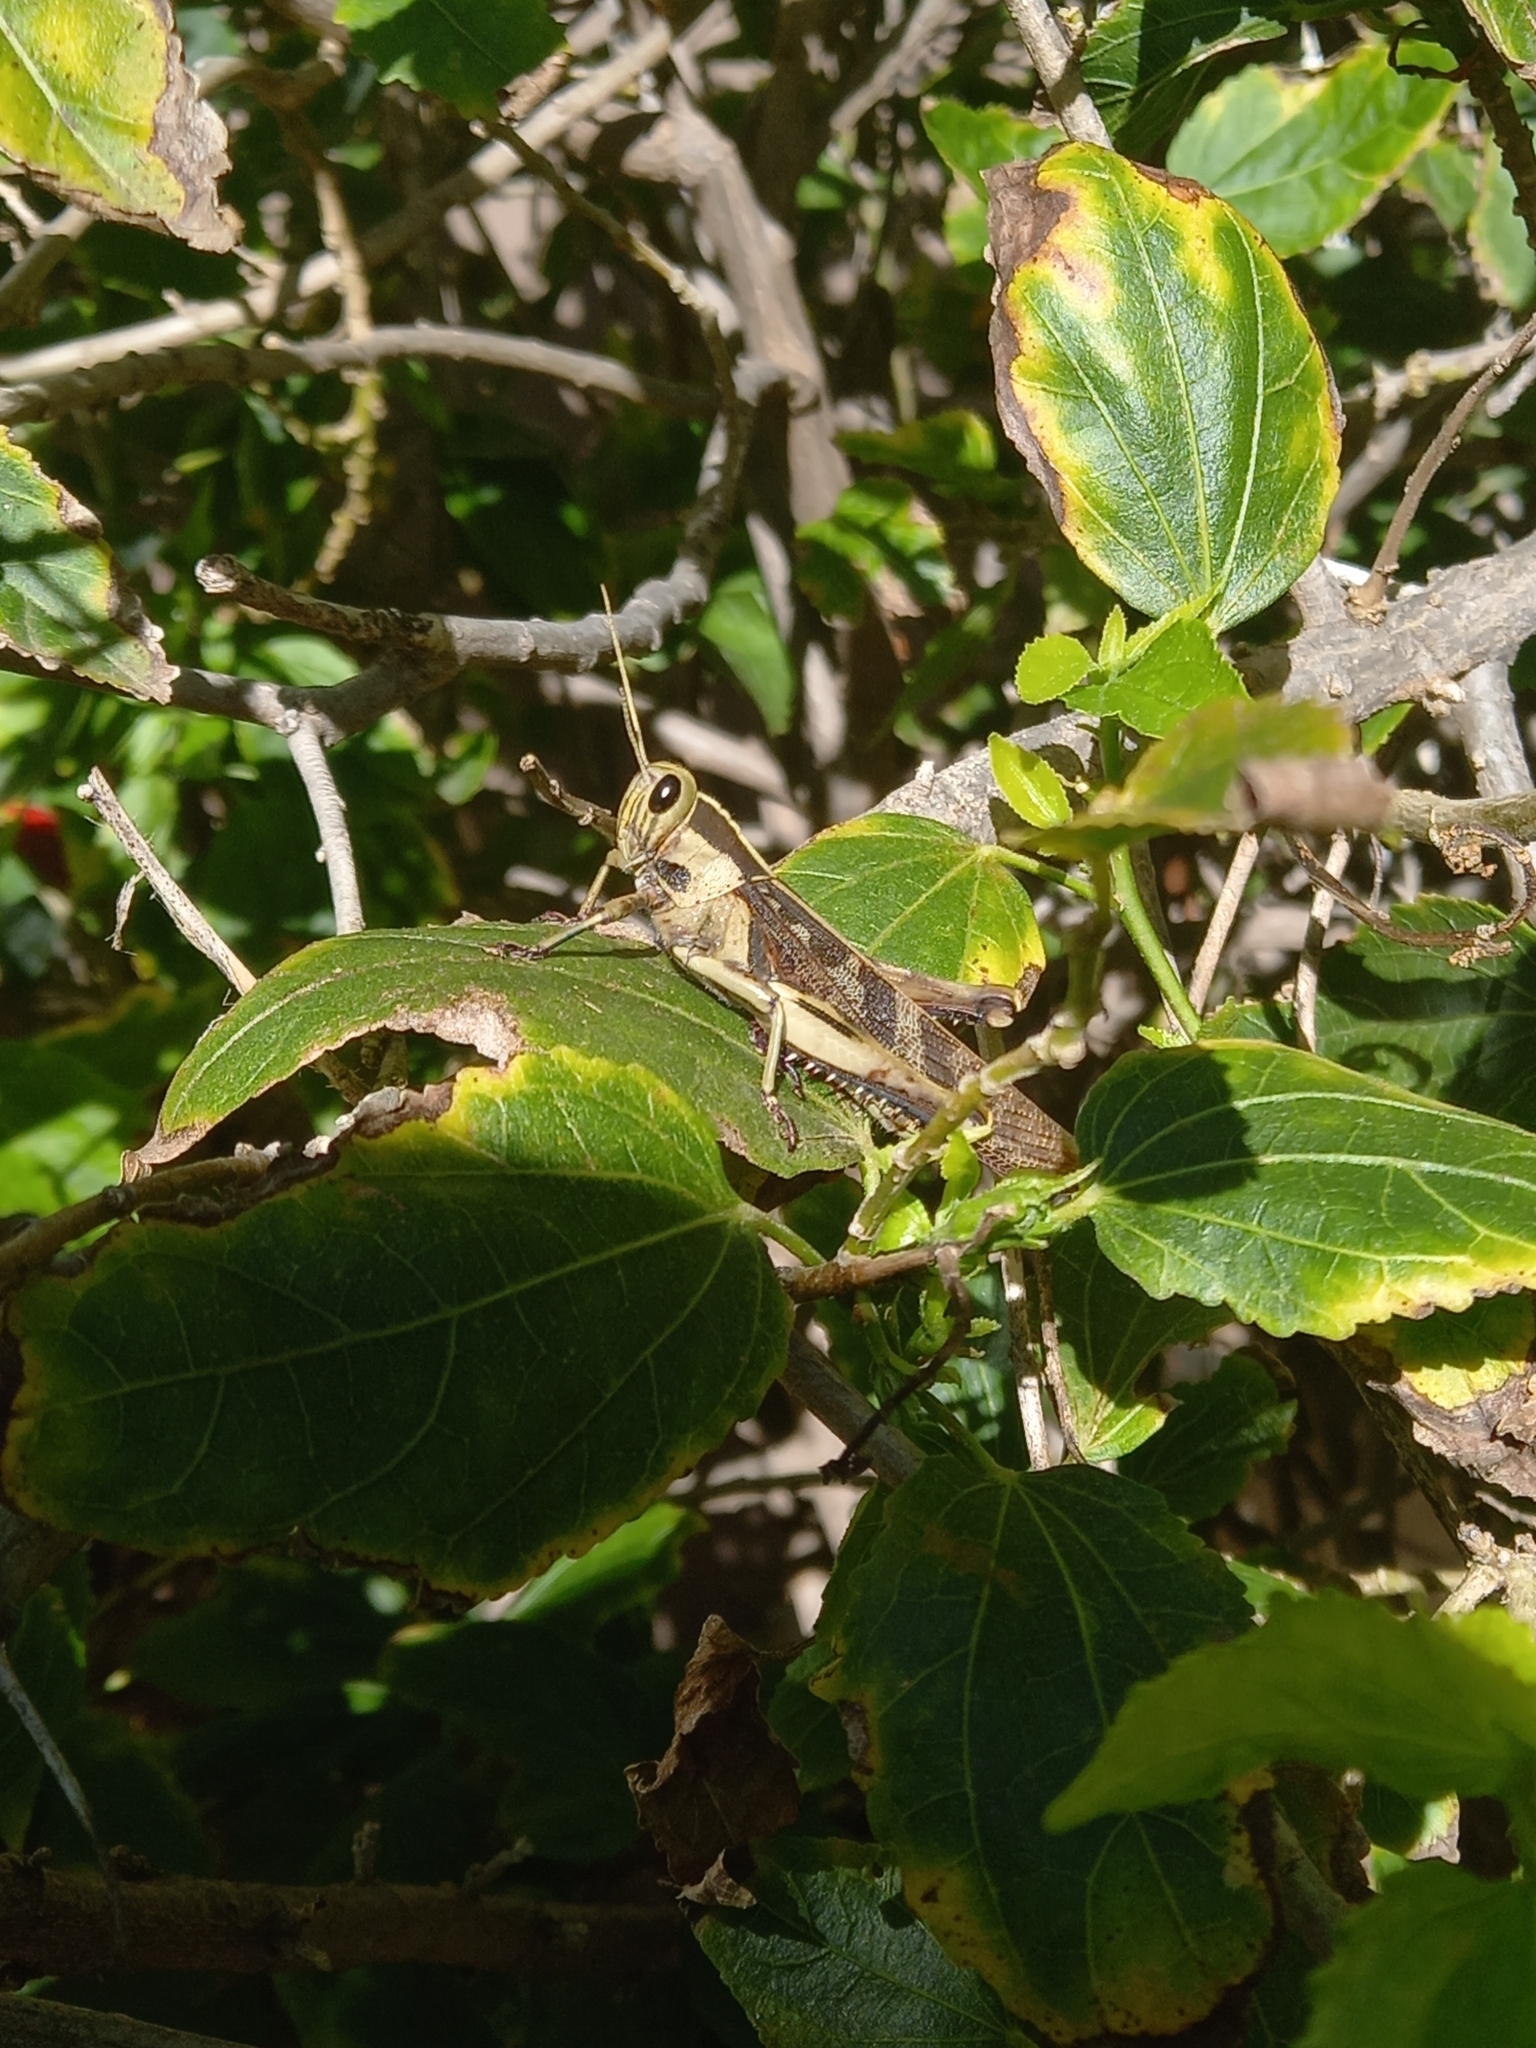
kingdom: Animalia
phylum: Arthropoda
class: Insecta
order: Orthoptera
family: Acrididae
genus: Acanthacris
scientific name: Acanthacris ruficornis
